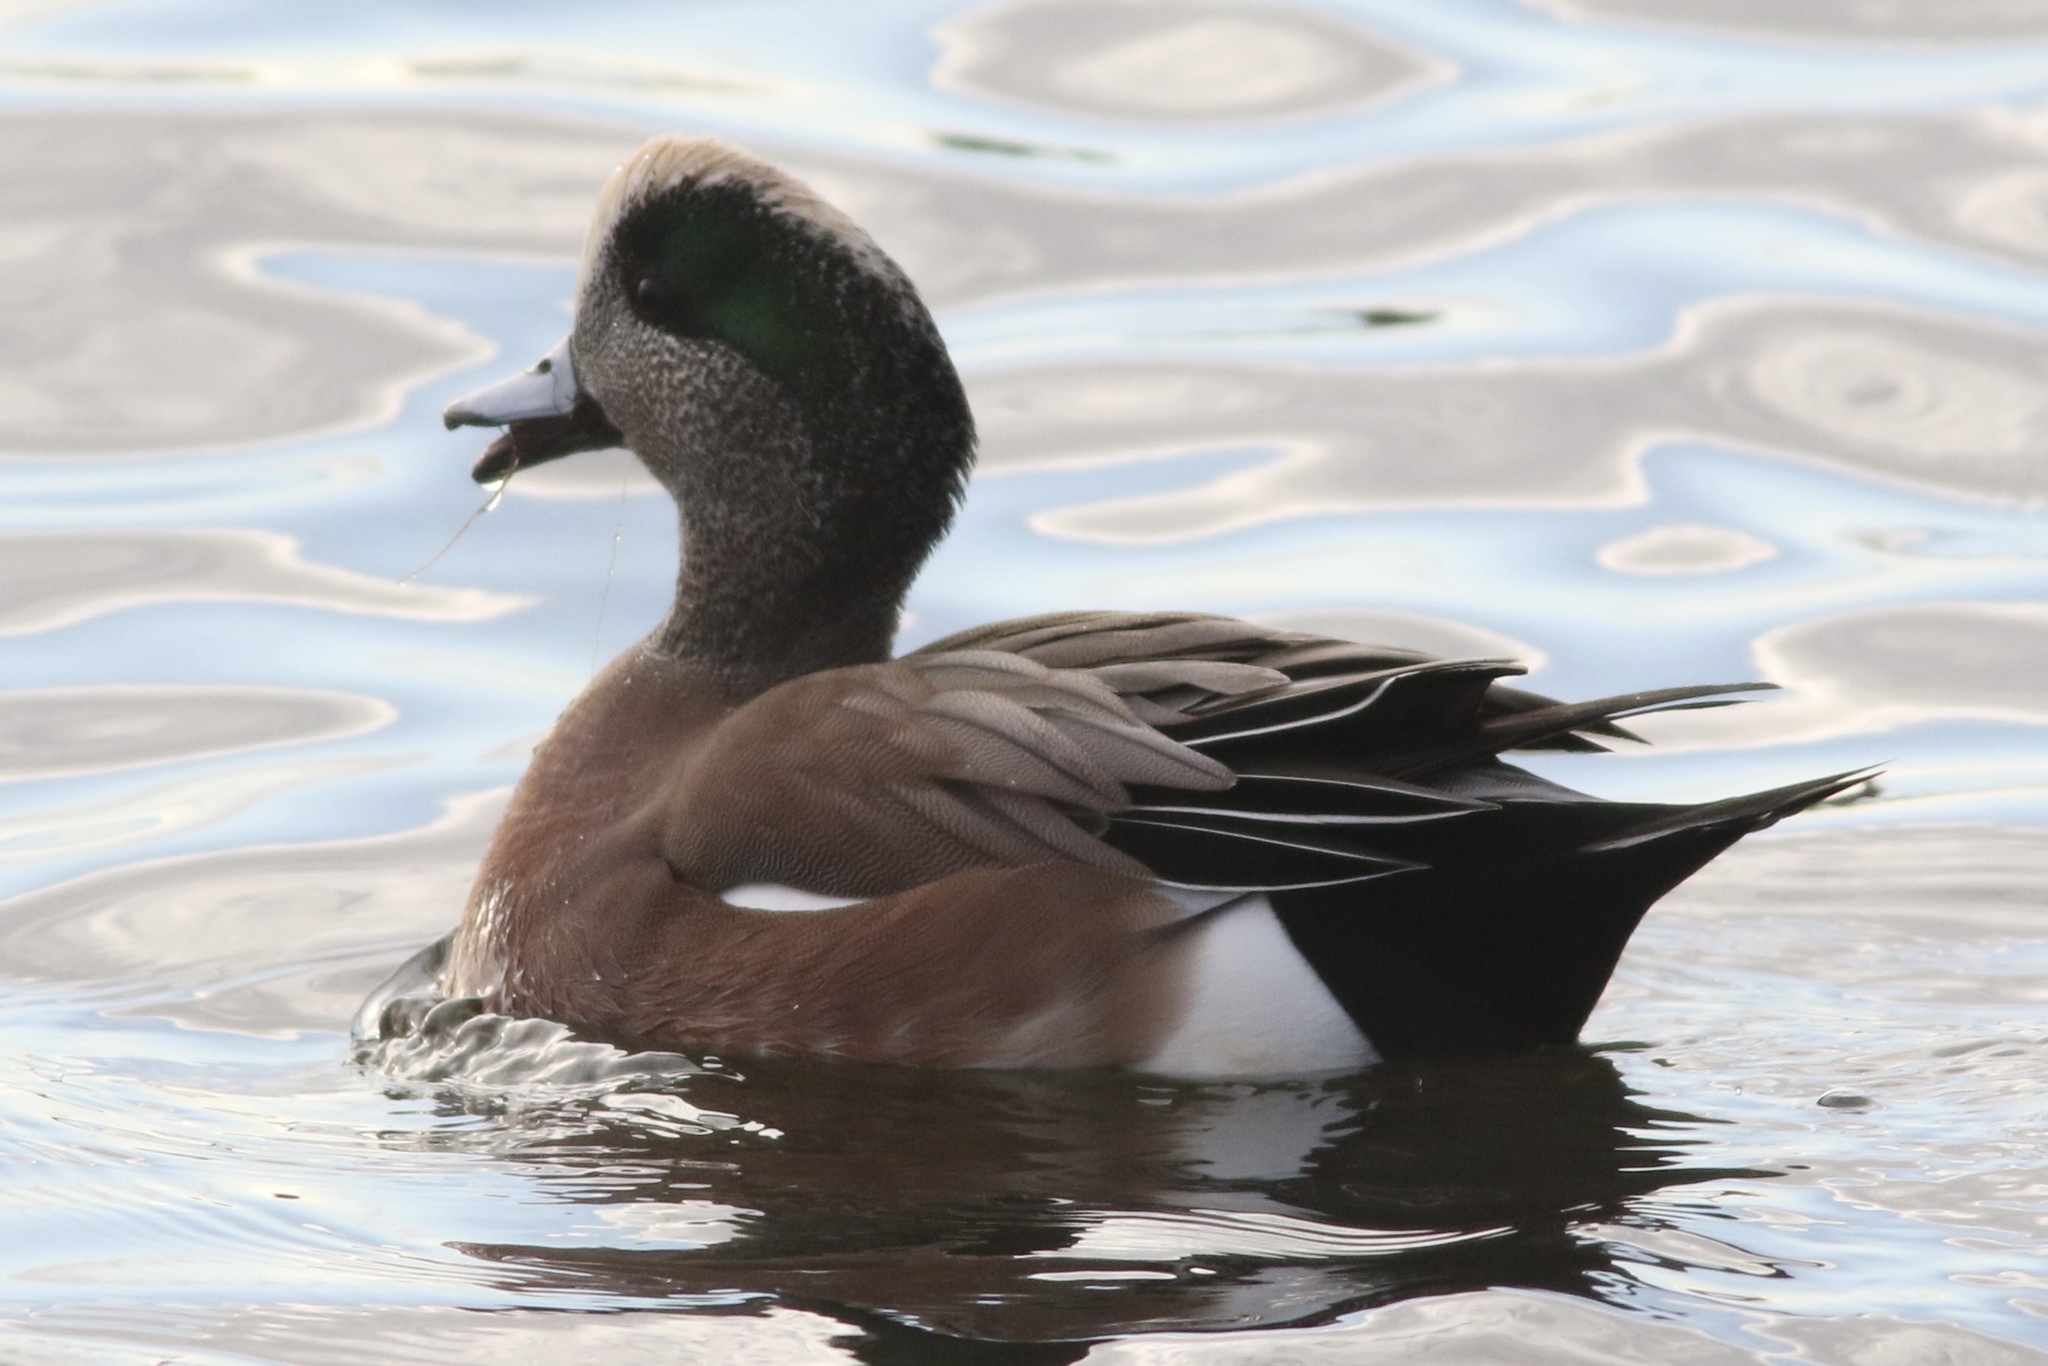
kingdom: Animalia
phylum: Chordata
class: Aves
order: Anseriformes
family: Anatidae
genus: Mareca
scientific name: Mareca americana
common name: American wigeon
